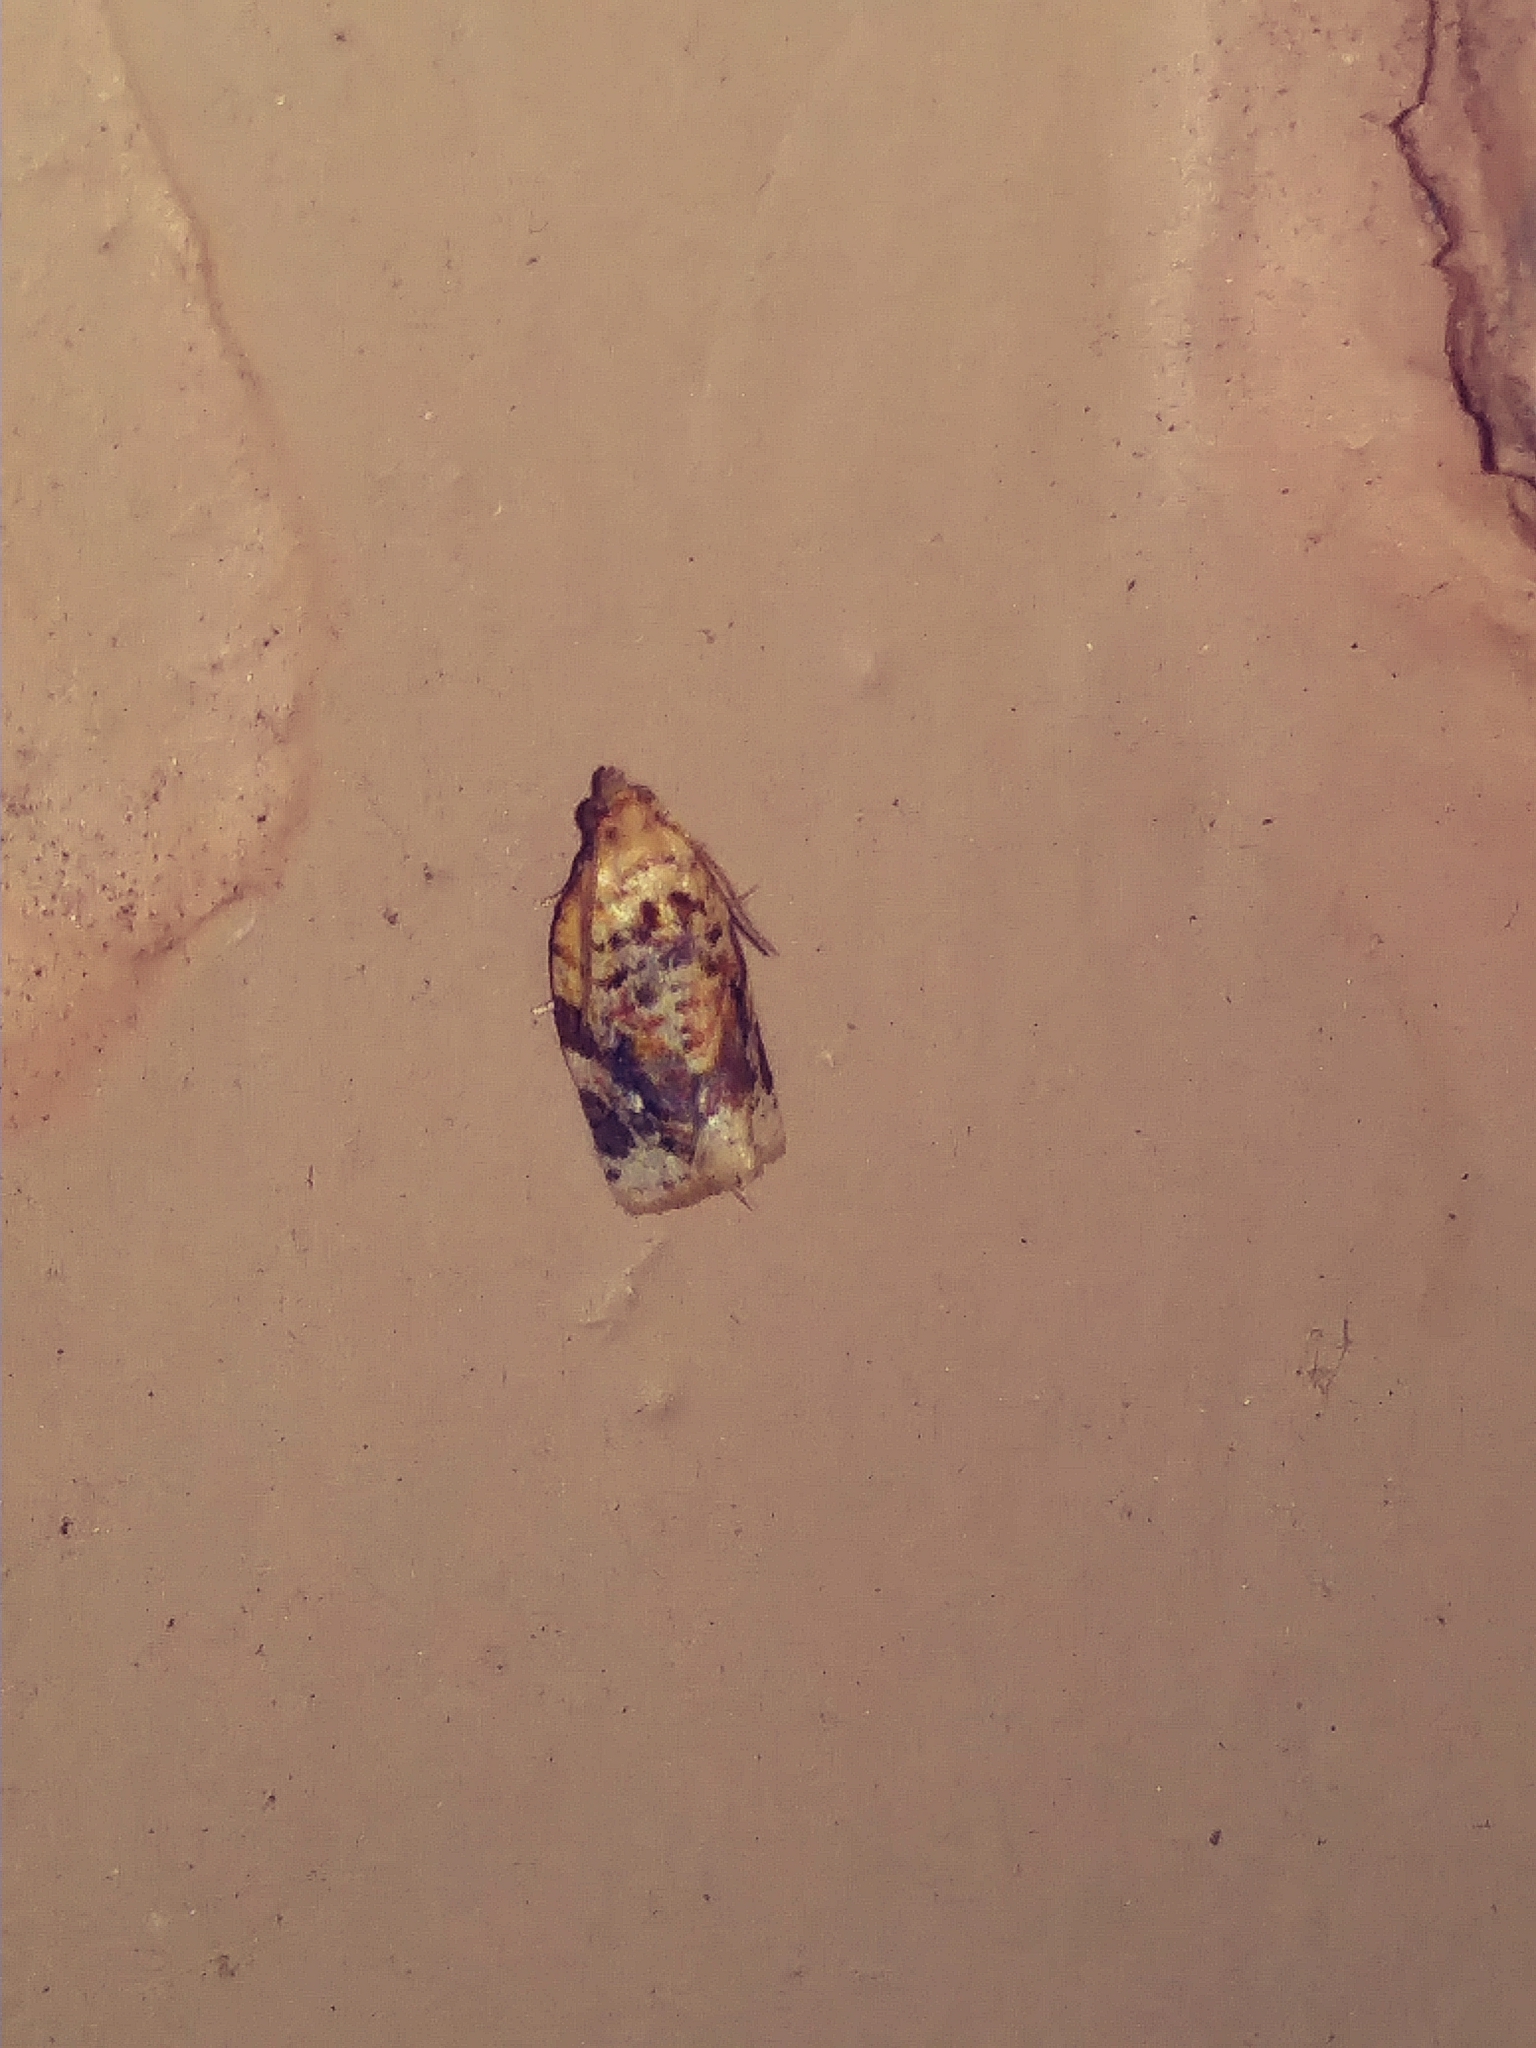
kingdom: Animalia
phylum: Arthropoda
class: Insecta
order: Lepidoptera
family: Tortricidae
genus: Argyrotaenia
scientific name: Argyrotaenia velutinana
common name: Red-banded leafroller moth
